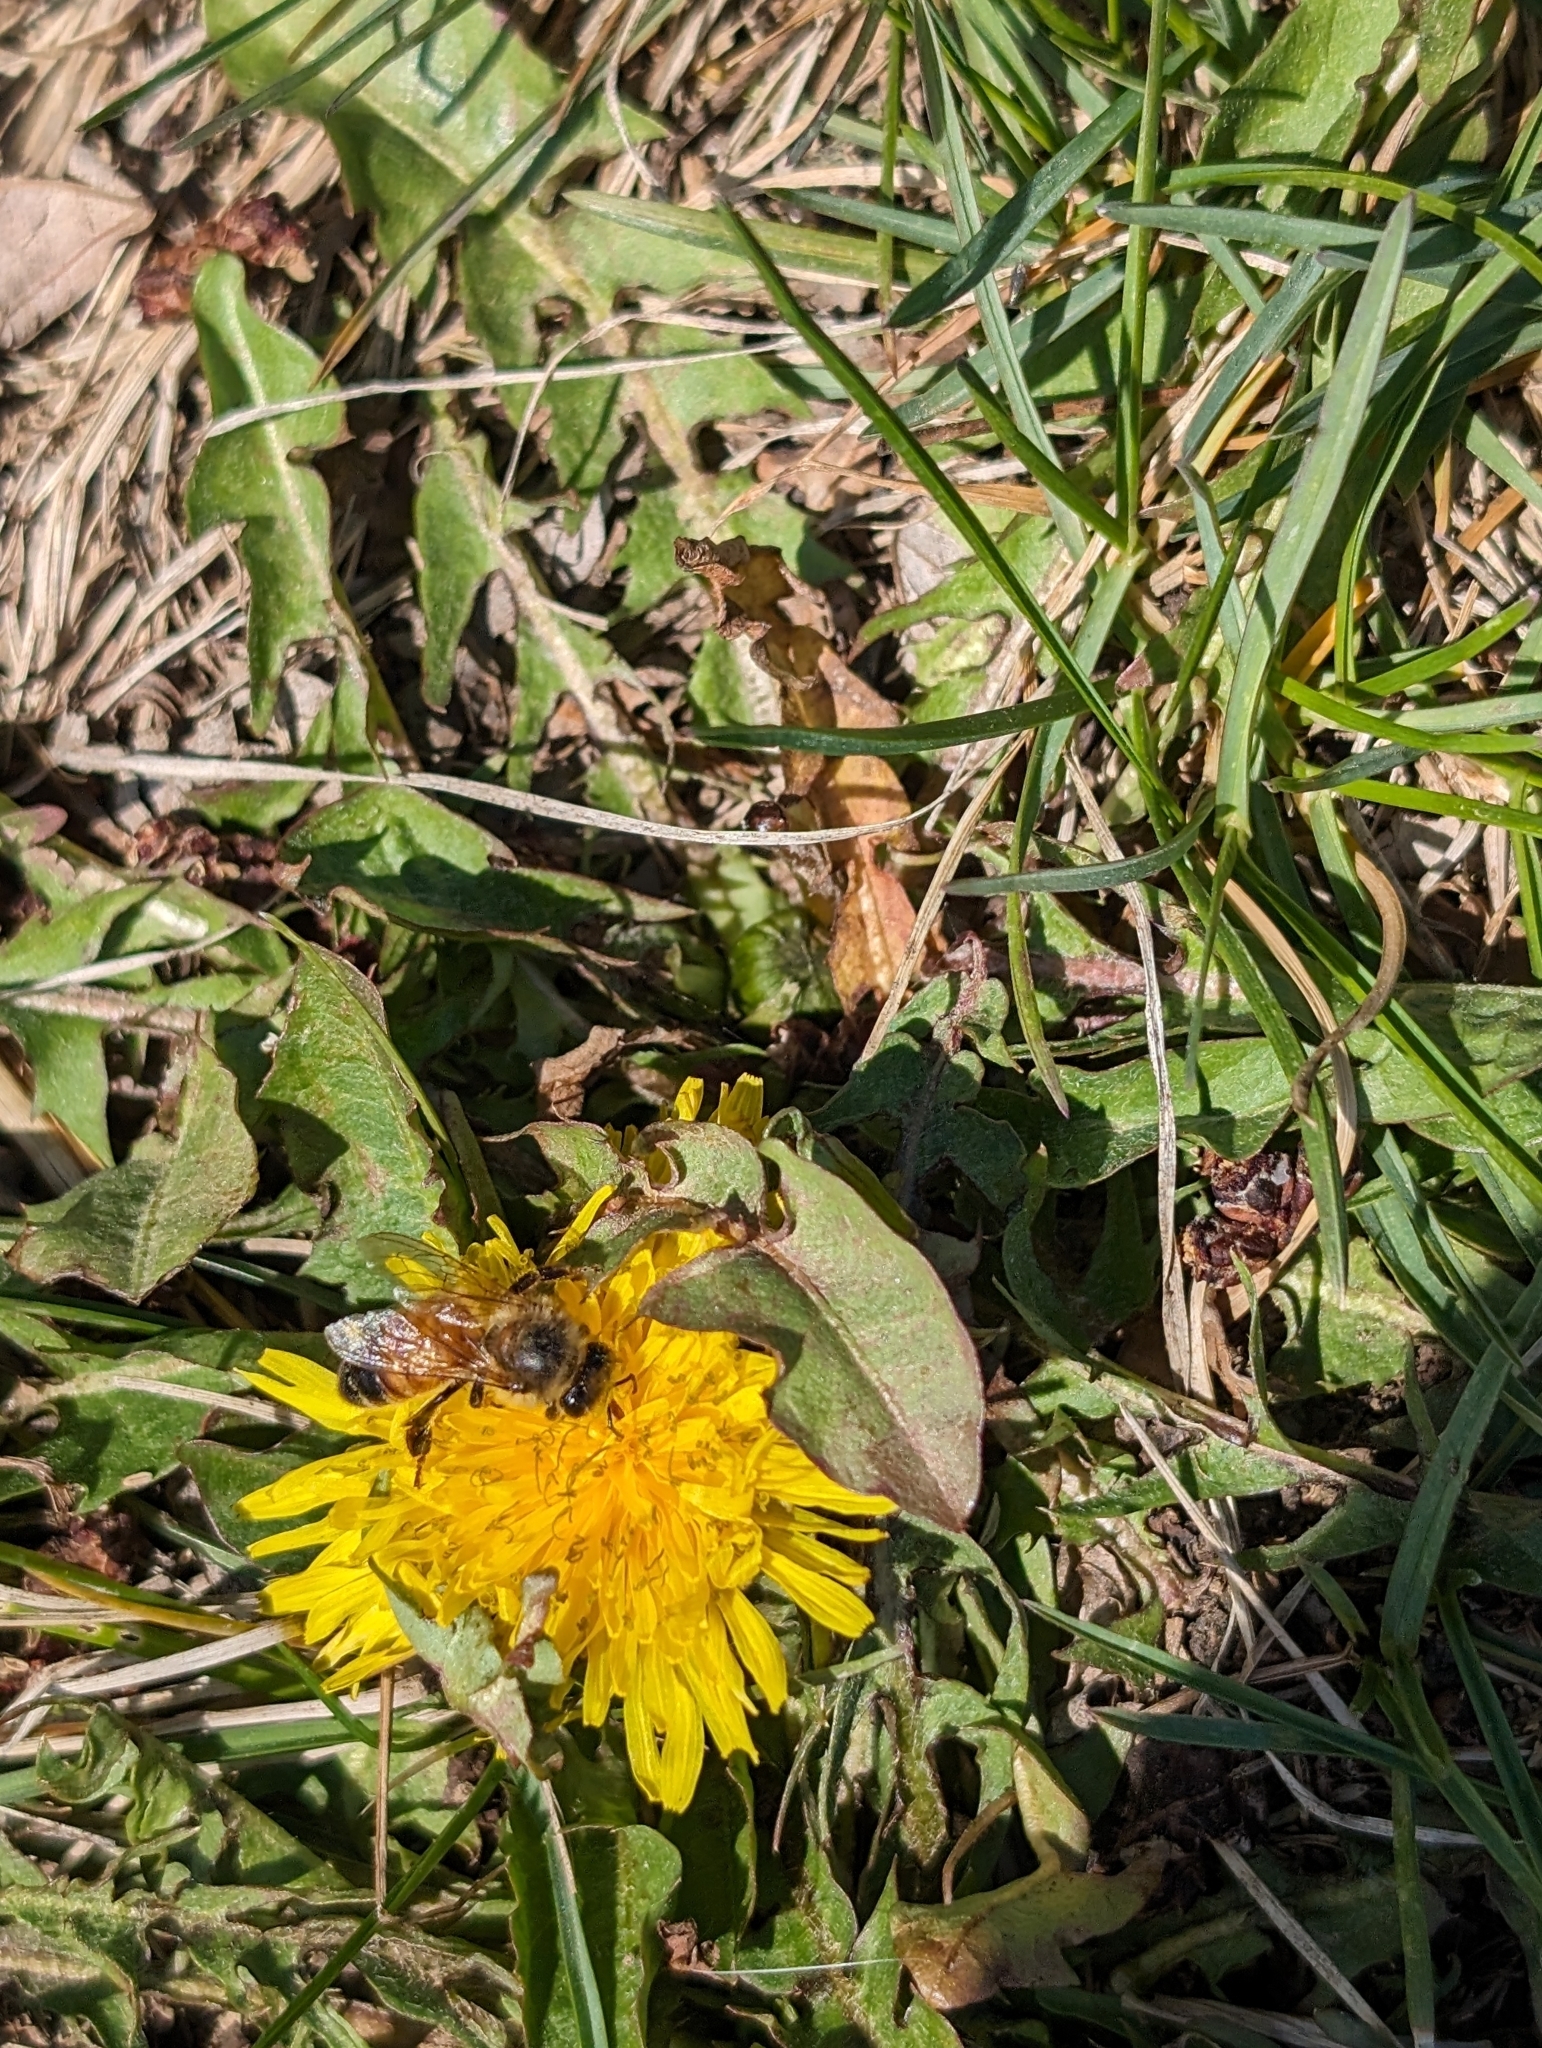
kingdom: Animalia
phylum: Arthropoda
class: Insecta
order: Hymenoptera
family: Apidae
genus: Apis
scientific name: Apis mellifera
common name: Honey bee
